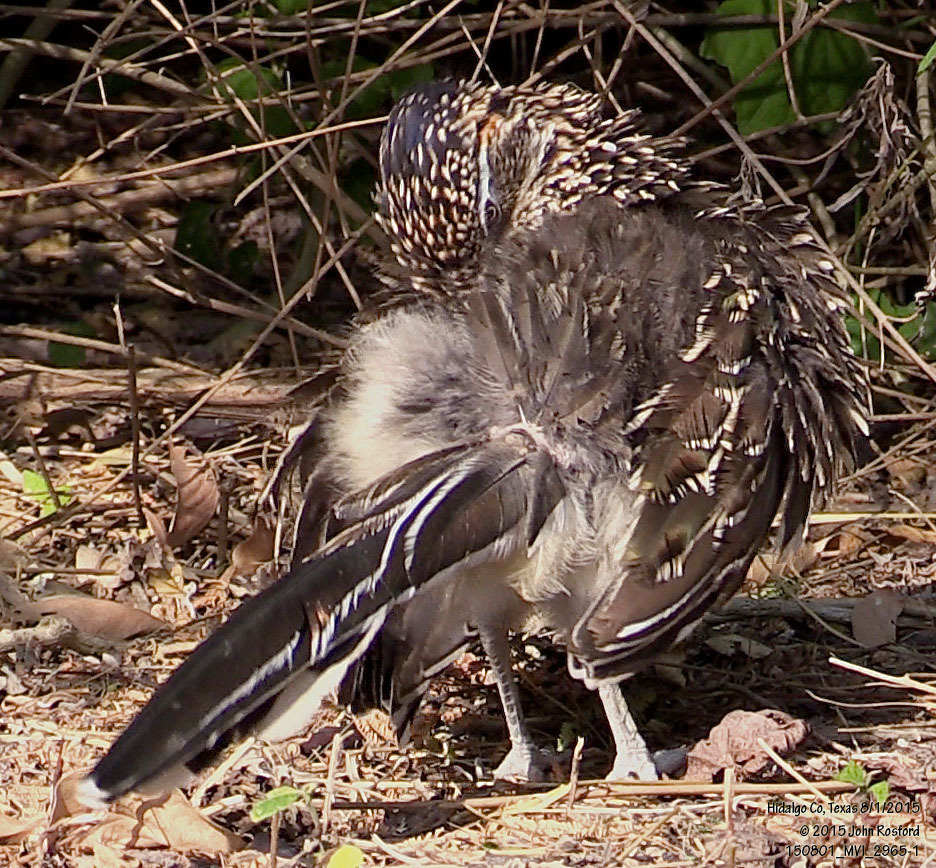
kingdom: Animalia
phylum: Chordata
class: Aves
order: Cuculiformes
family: Cuculidae
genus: Geococcyx
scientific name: Geococcyx californianus
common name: Greater roadrunner
